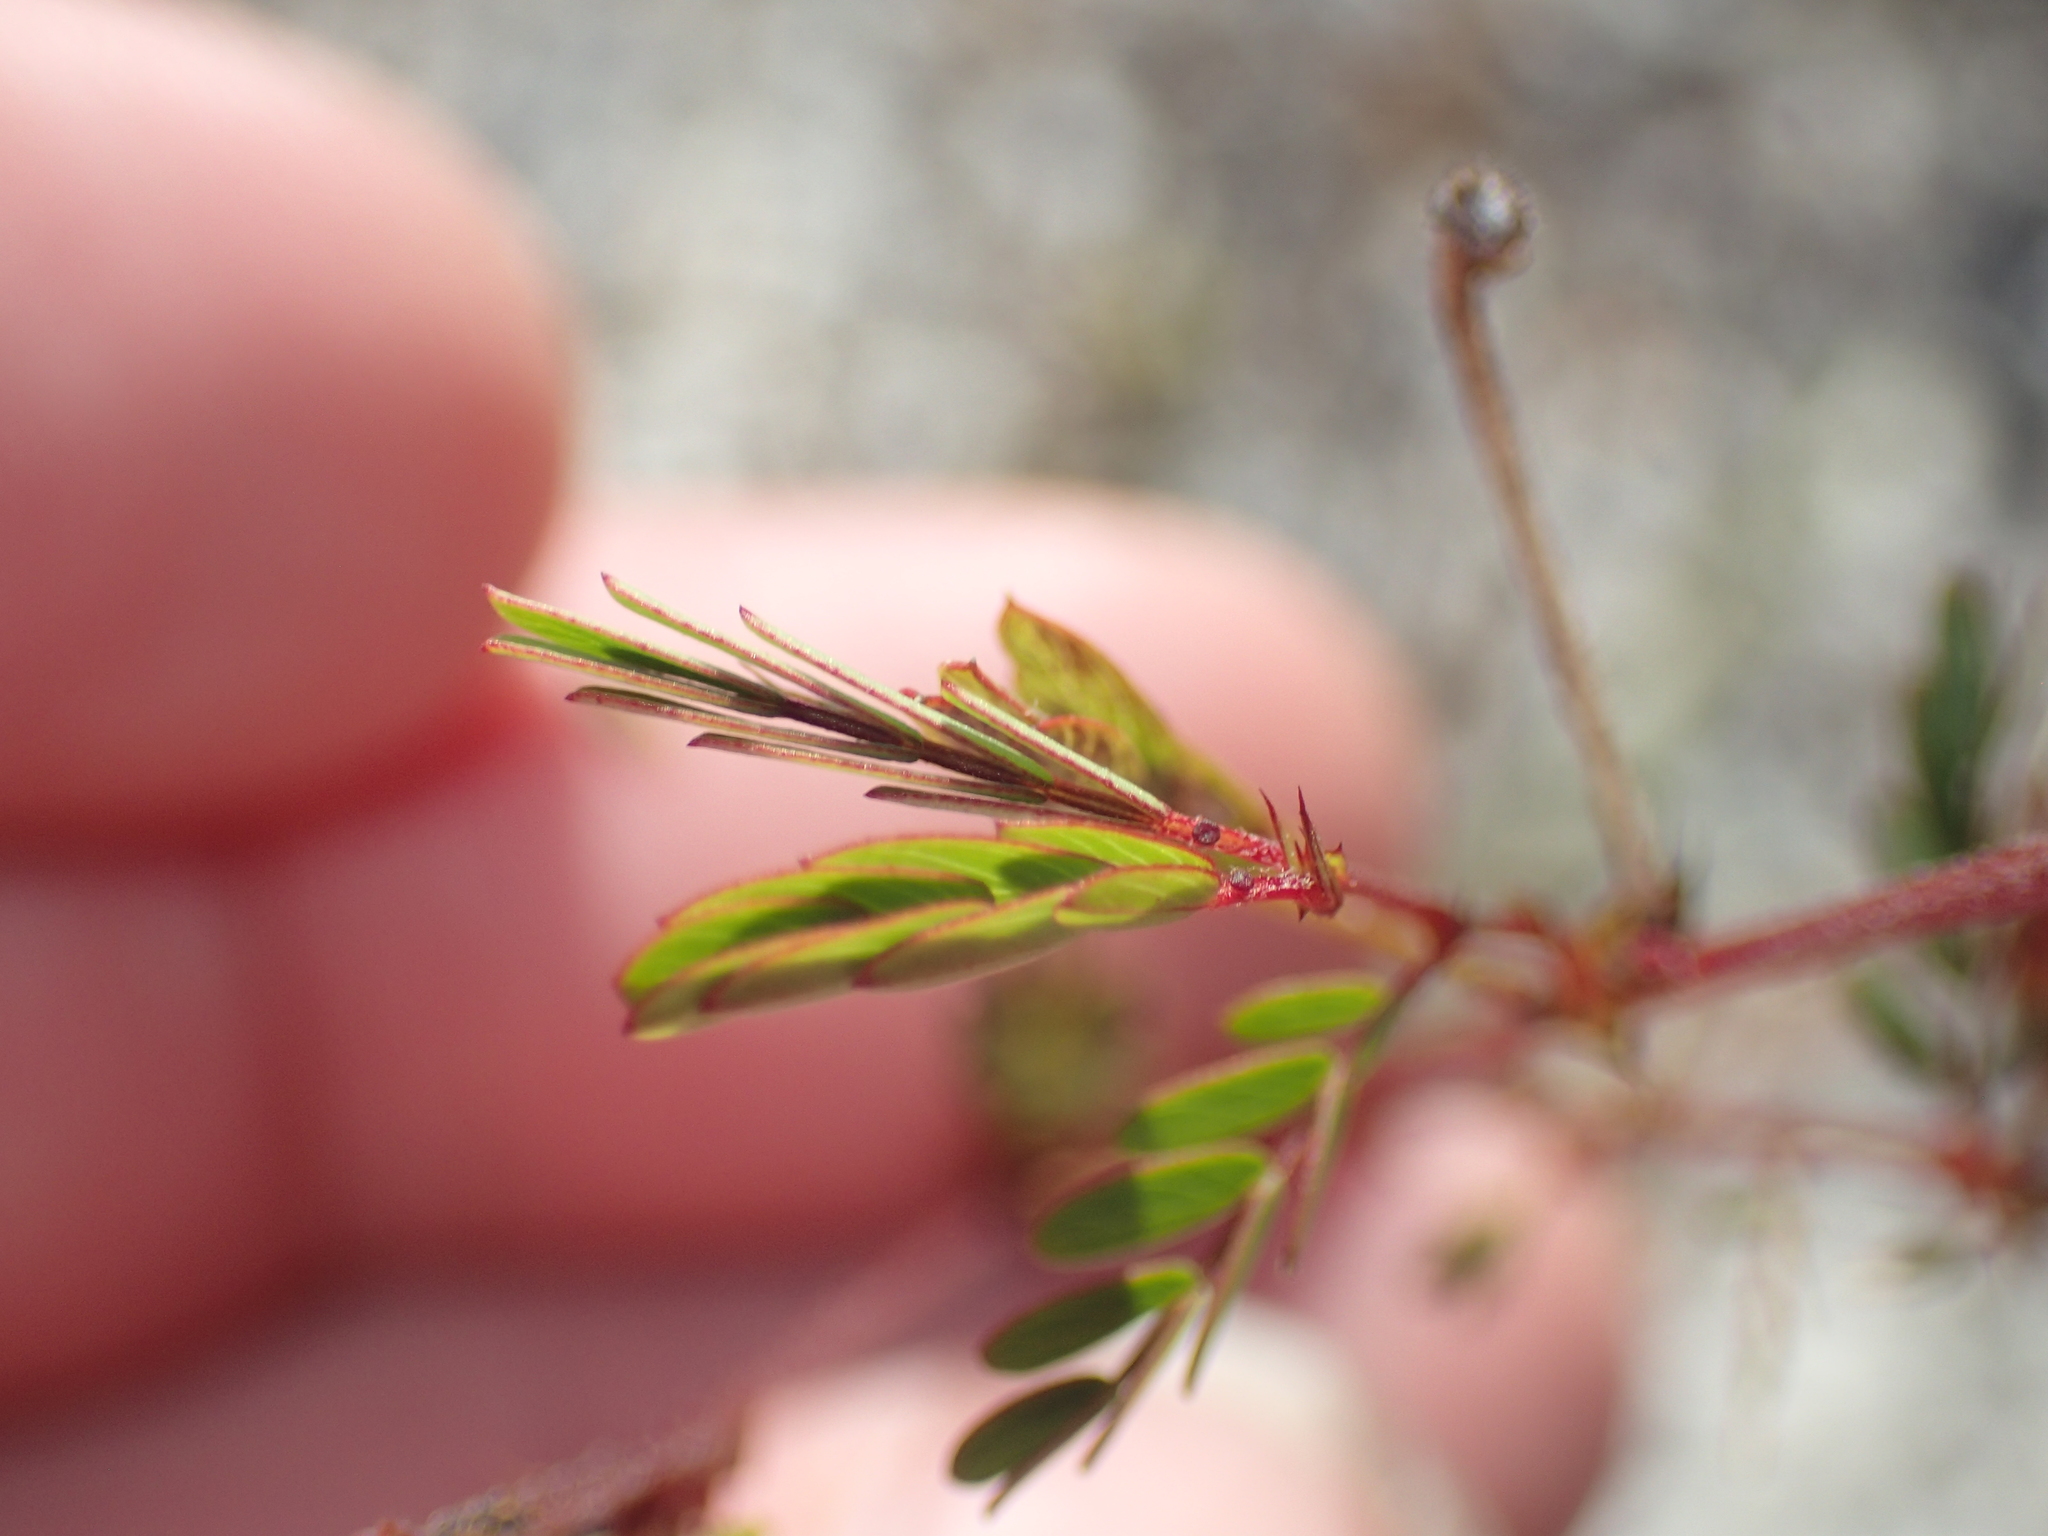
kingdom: Plantae
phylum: Tracheophyta
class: Magnoliopsida
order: Fabales
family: Fabaceae
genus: Chamaecrista
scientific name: Chamaecrista fasciculata
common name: Golden cassia
